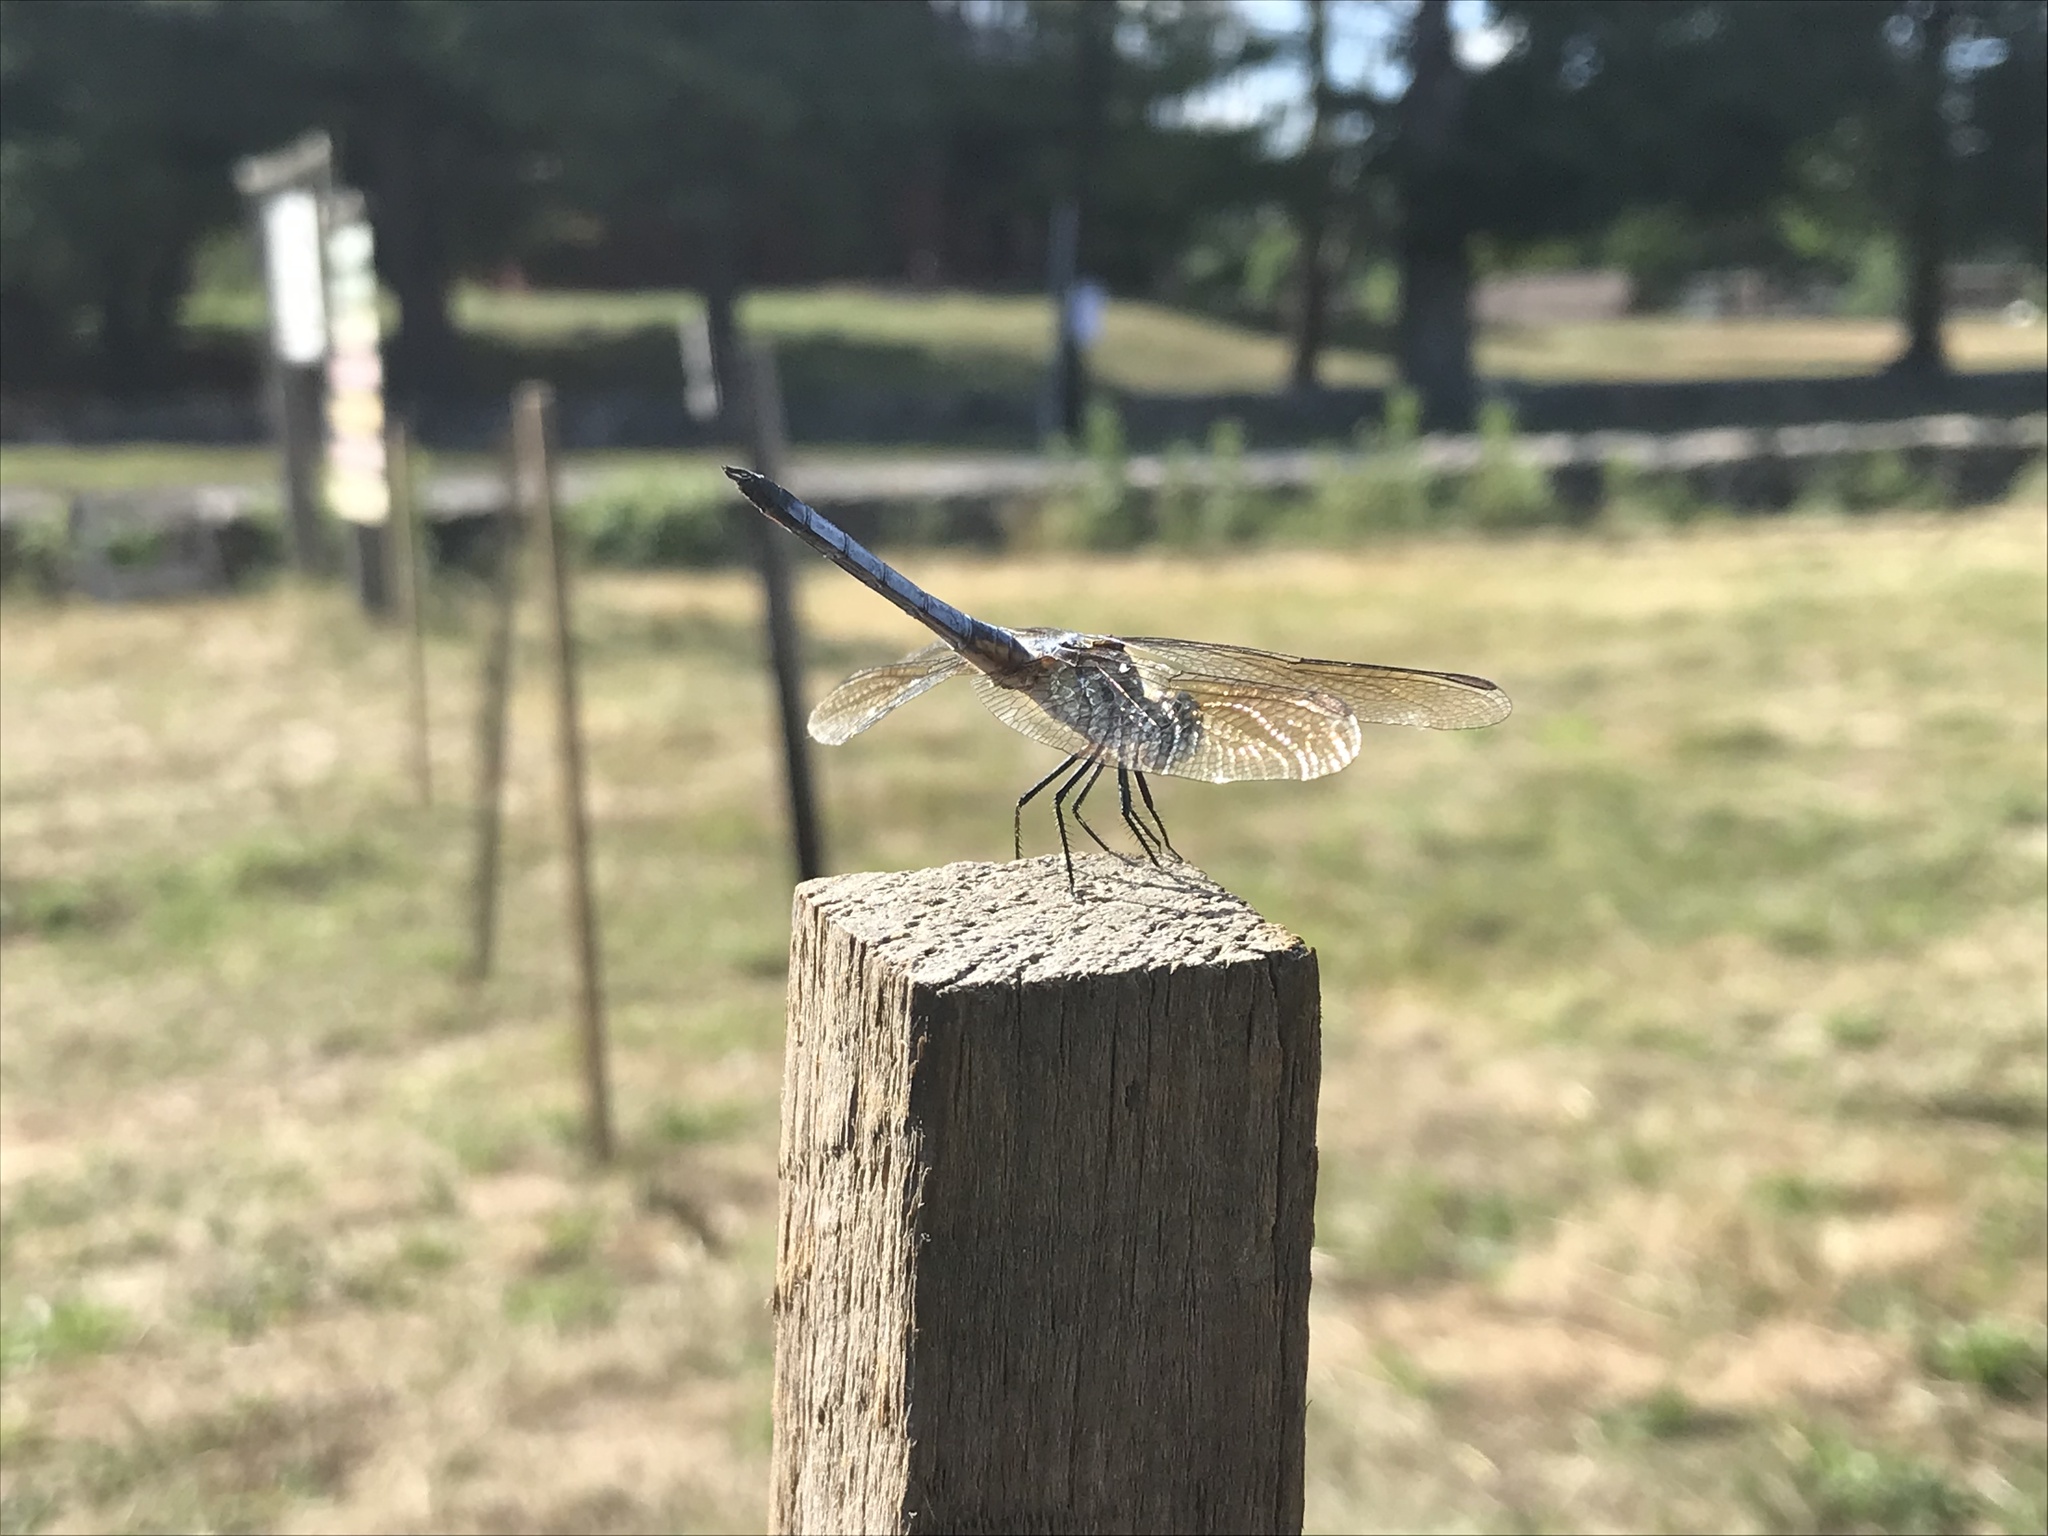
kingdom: Animalia
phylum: Arthropoda
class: Insecta
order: Odonata
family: Libellulidae
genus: Pachydiplax
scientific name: Pachydiplax longipennis
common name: Blue dasher
